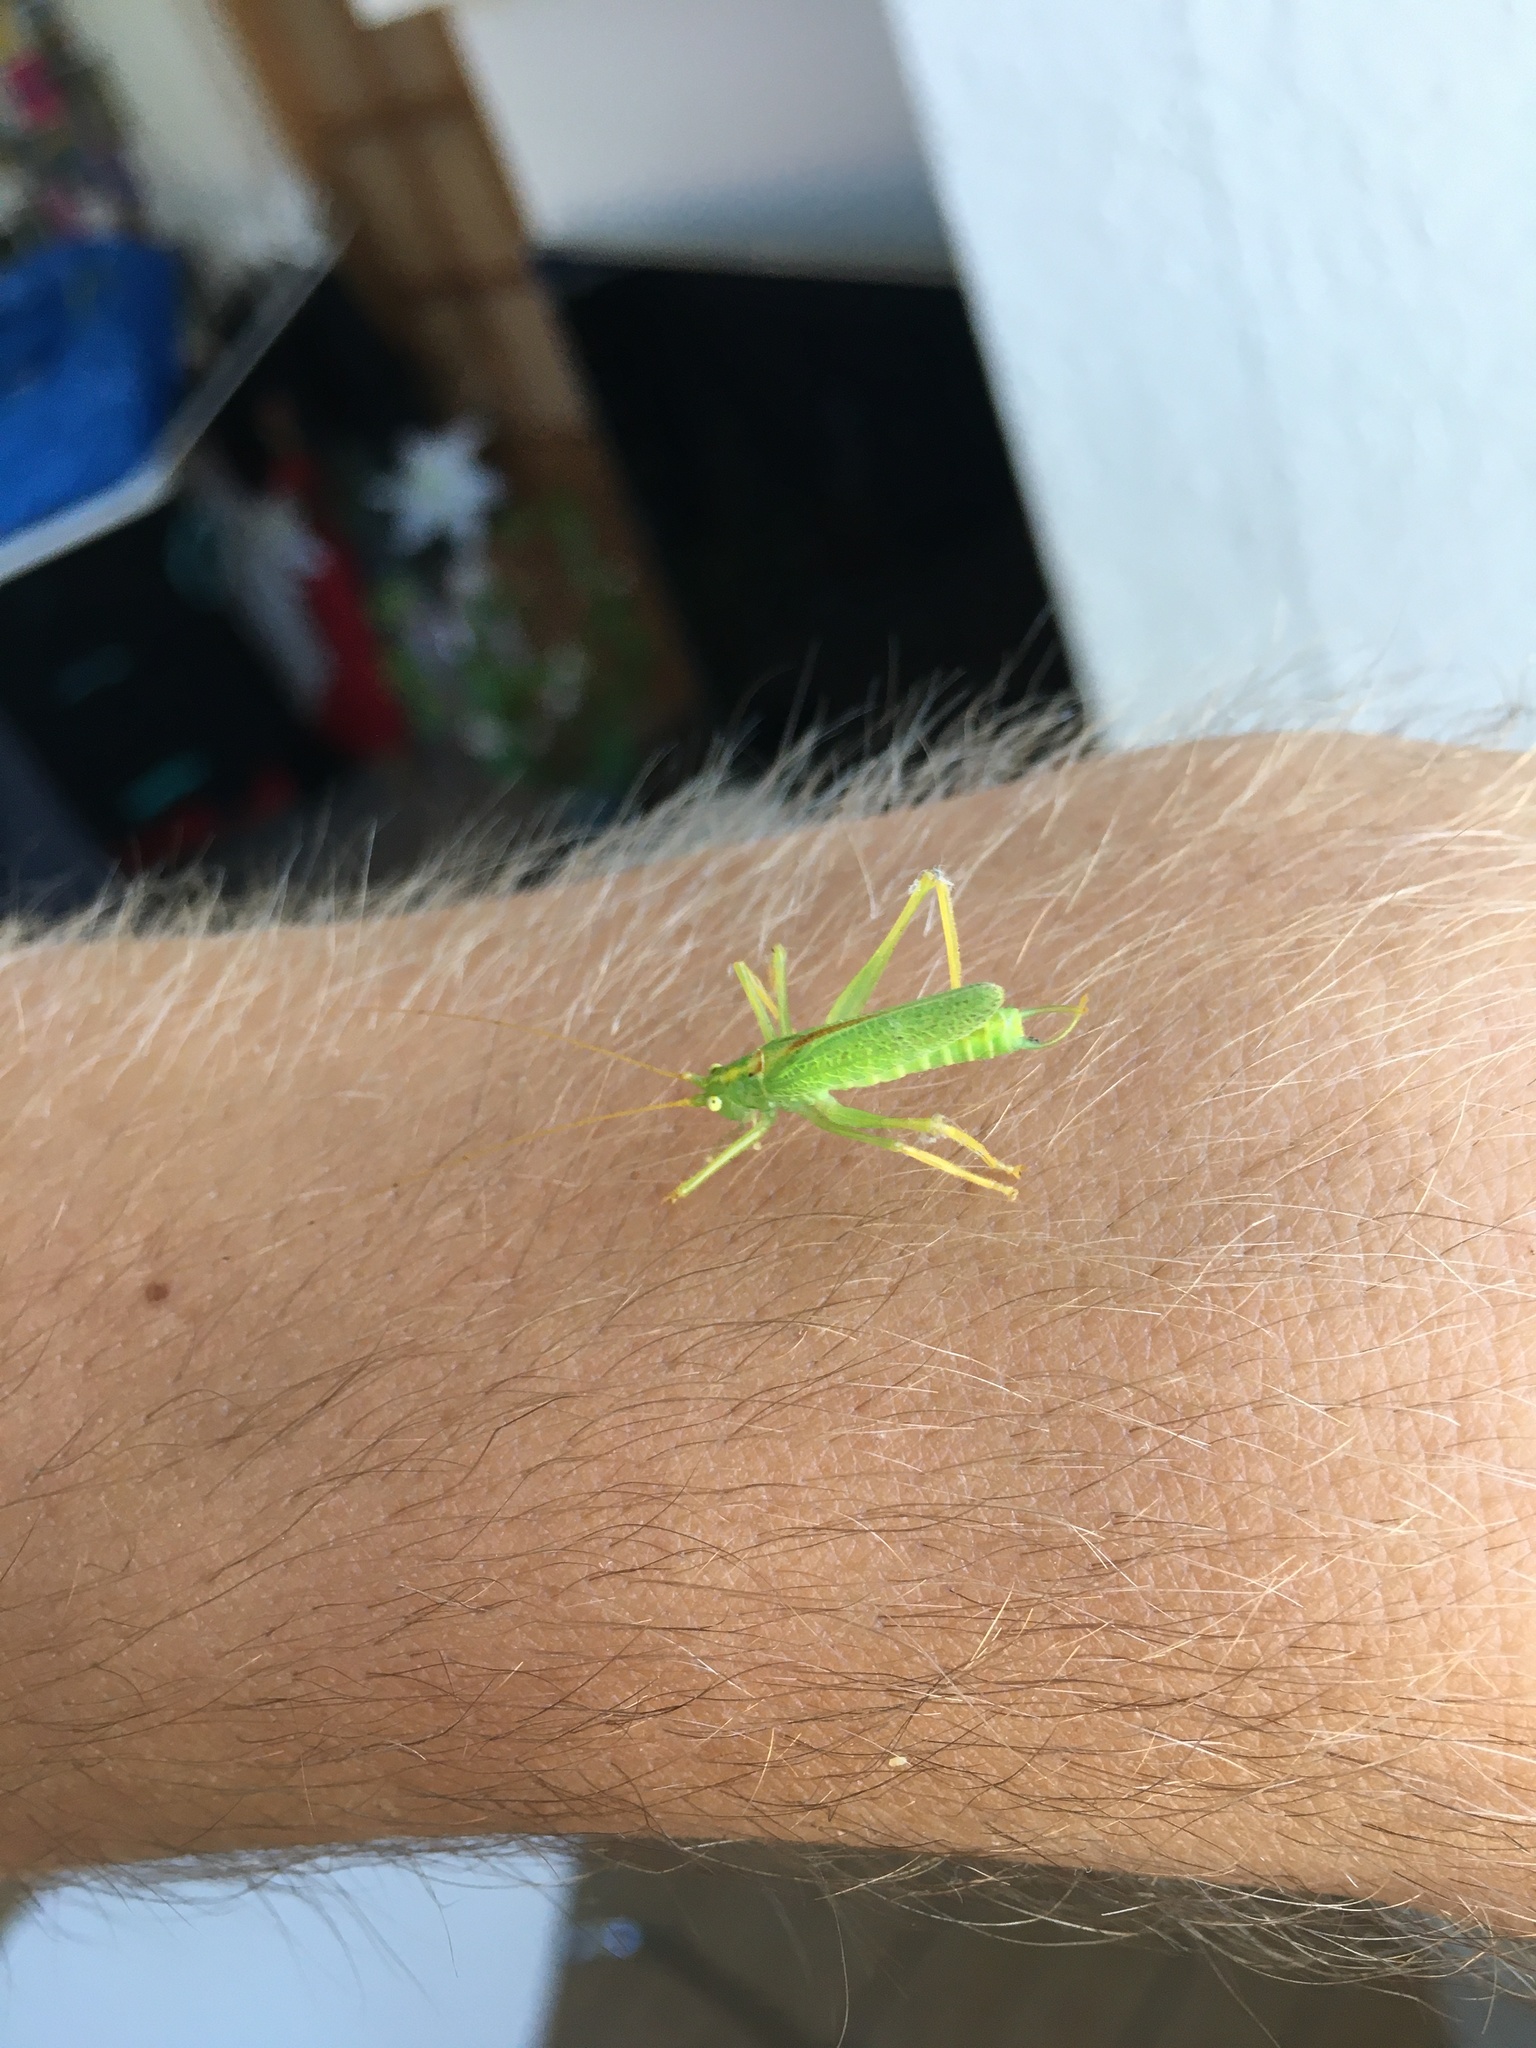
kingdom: Animalia
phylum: Arthropoda
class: Insecta
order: Orthoptera
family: Tettigoniidae
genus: Meconema
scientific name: Meconema thalassinum
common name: Oak bush-cricket
